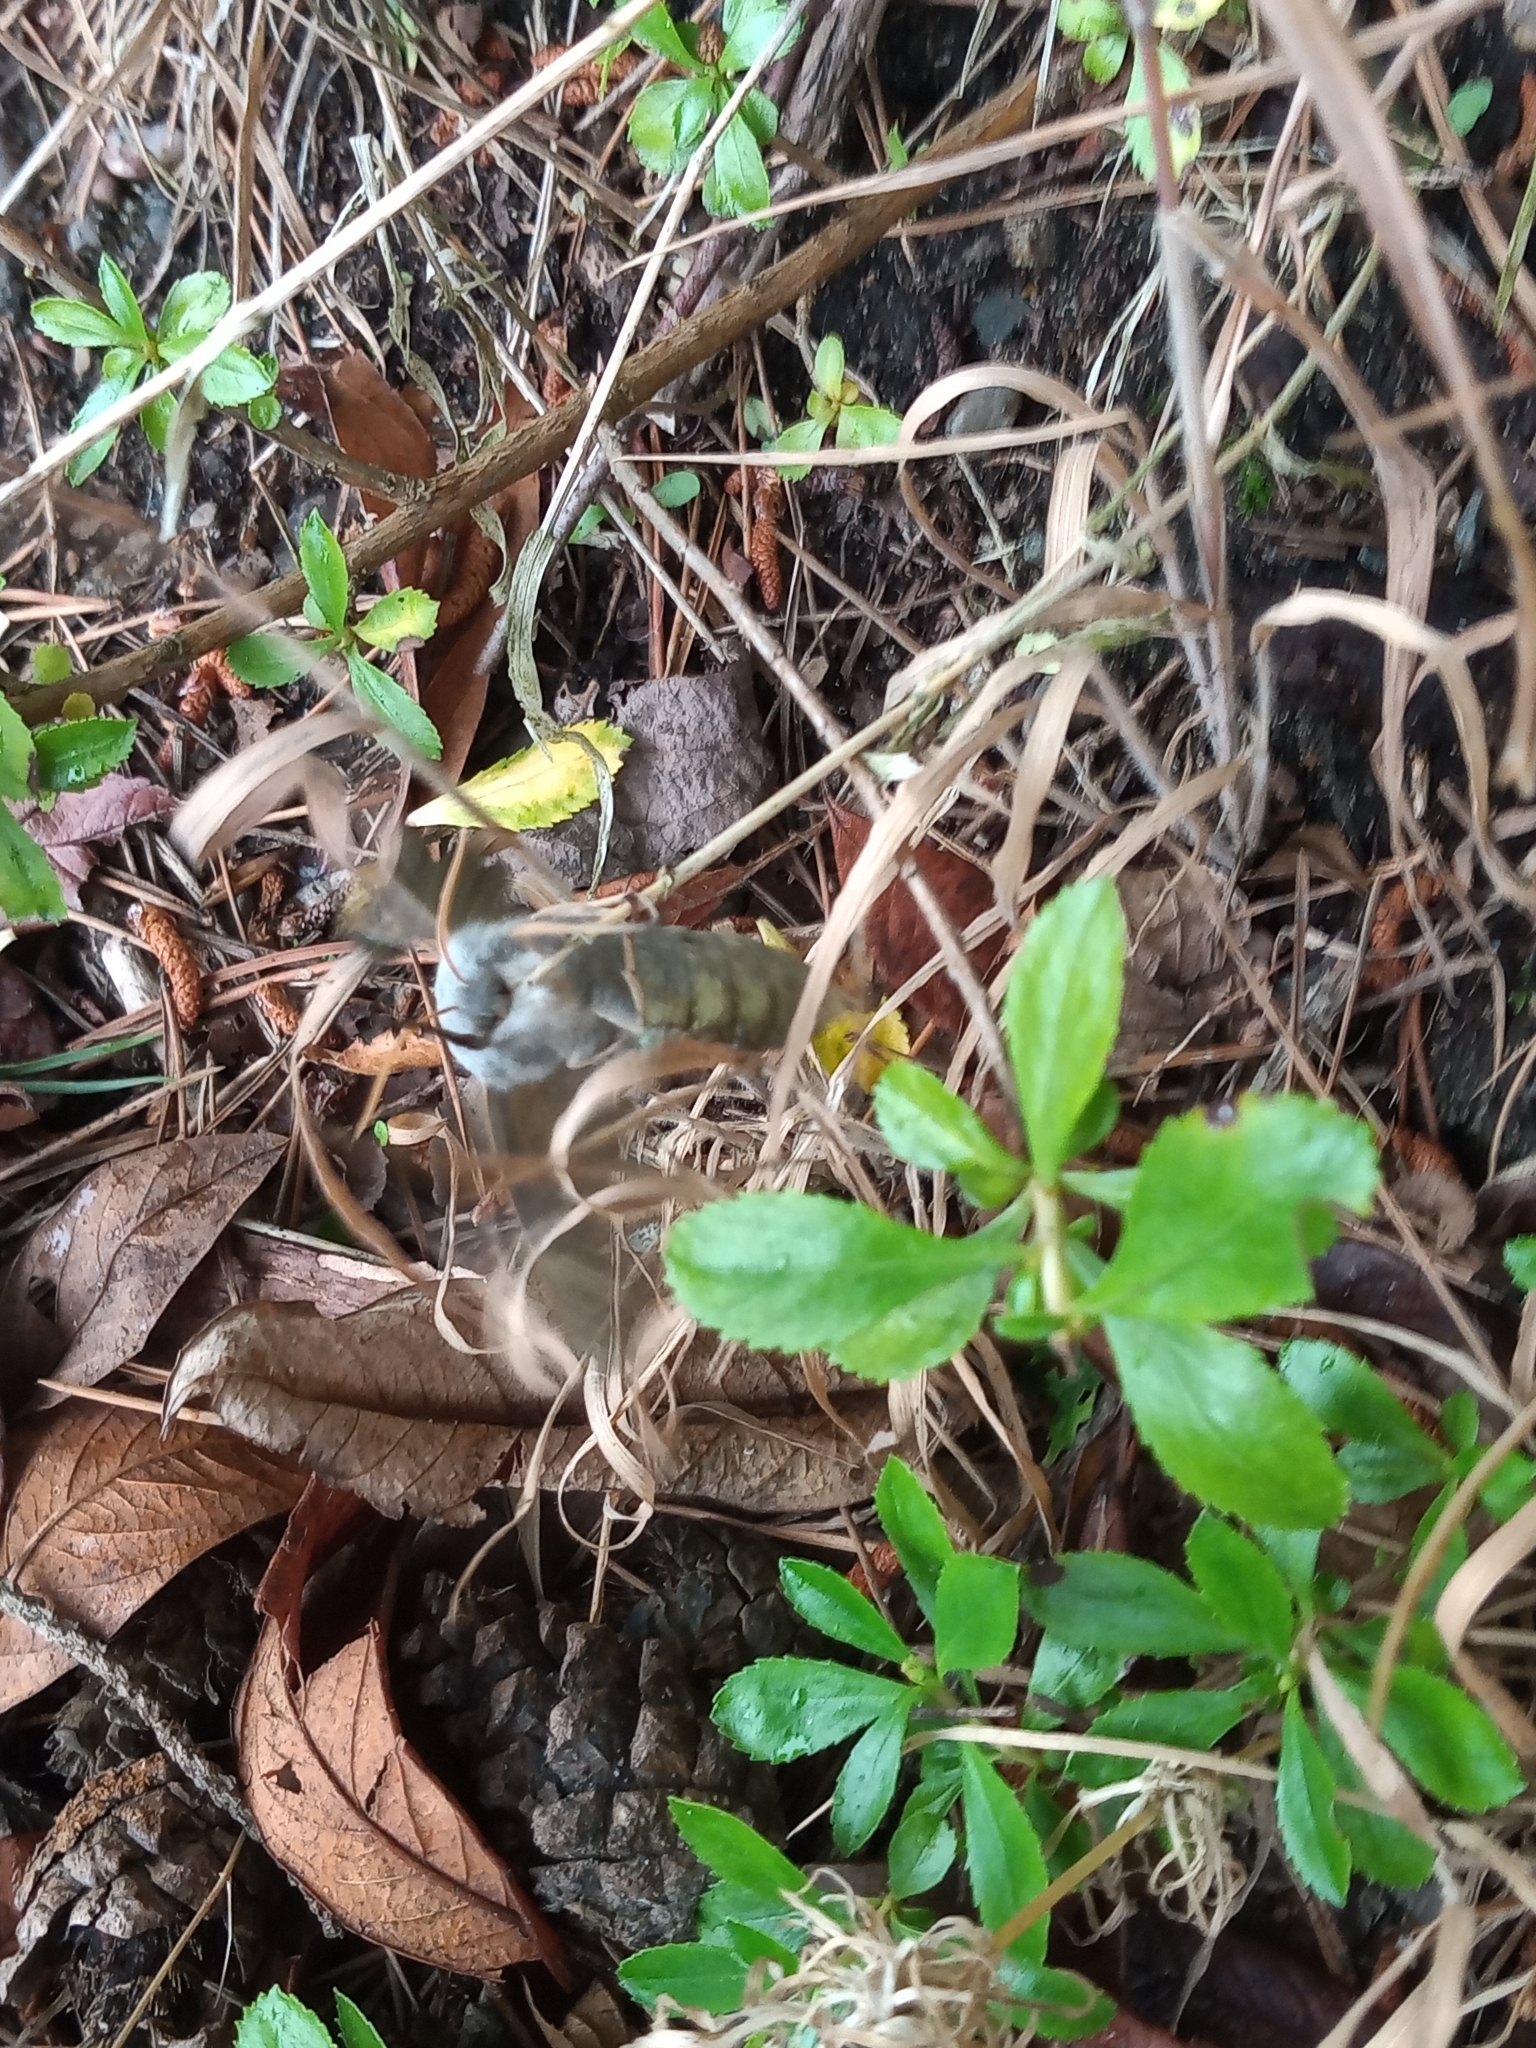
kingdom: Animalia
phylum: Arthropoda
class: Insecta
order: Lepidoptera
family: Sphingidae
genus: Laothoe
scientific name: Laothoe populi
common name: Poplar hawk-moth
